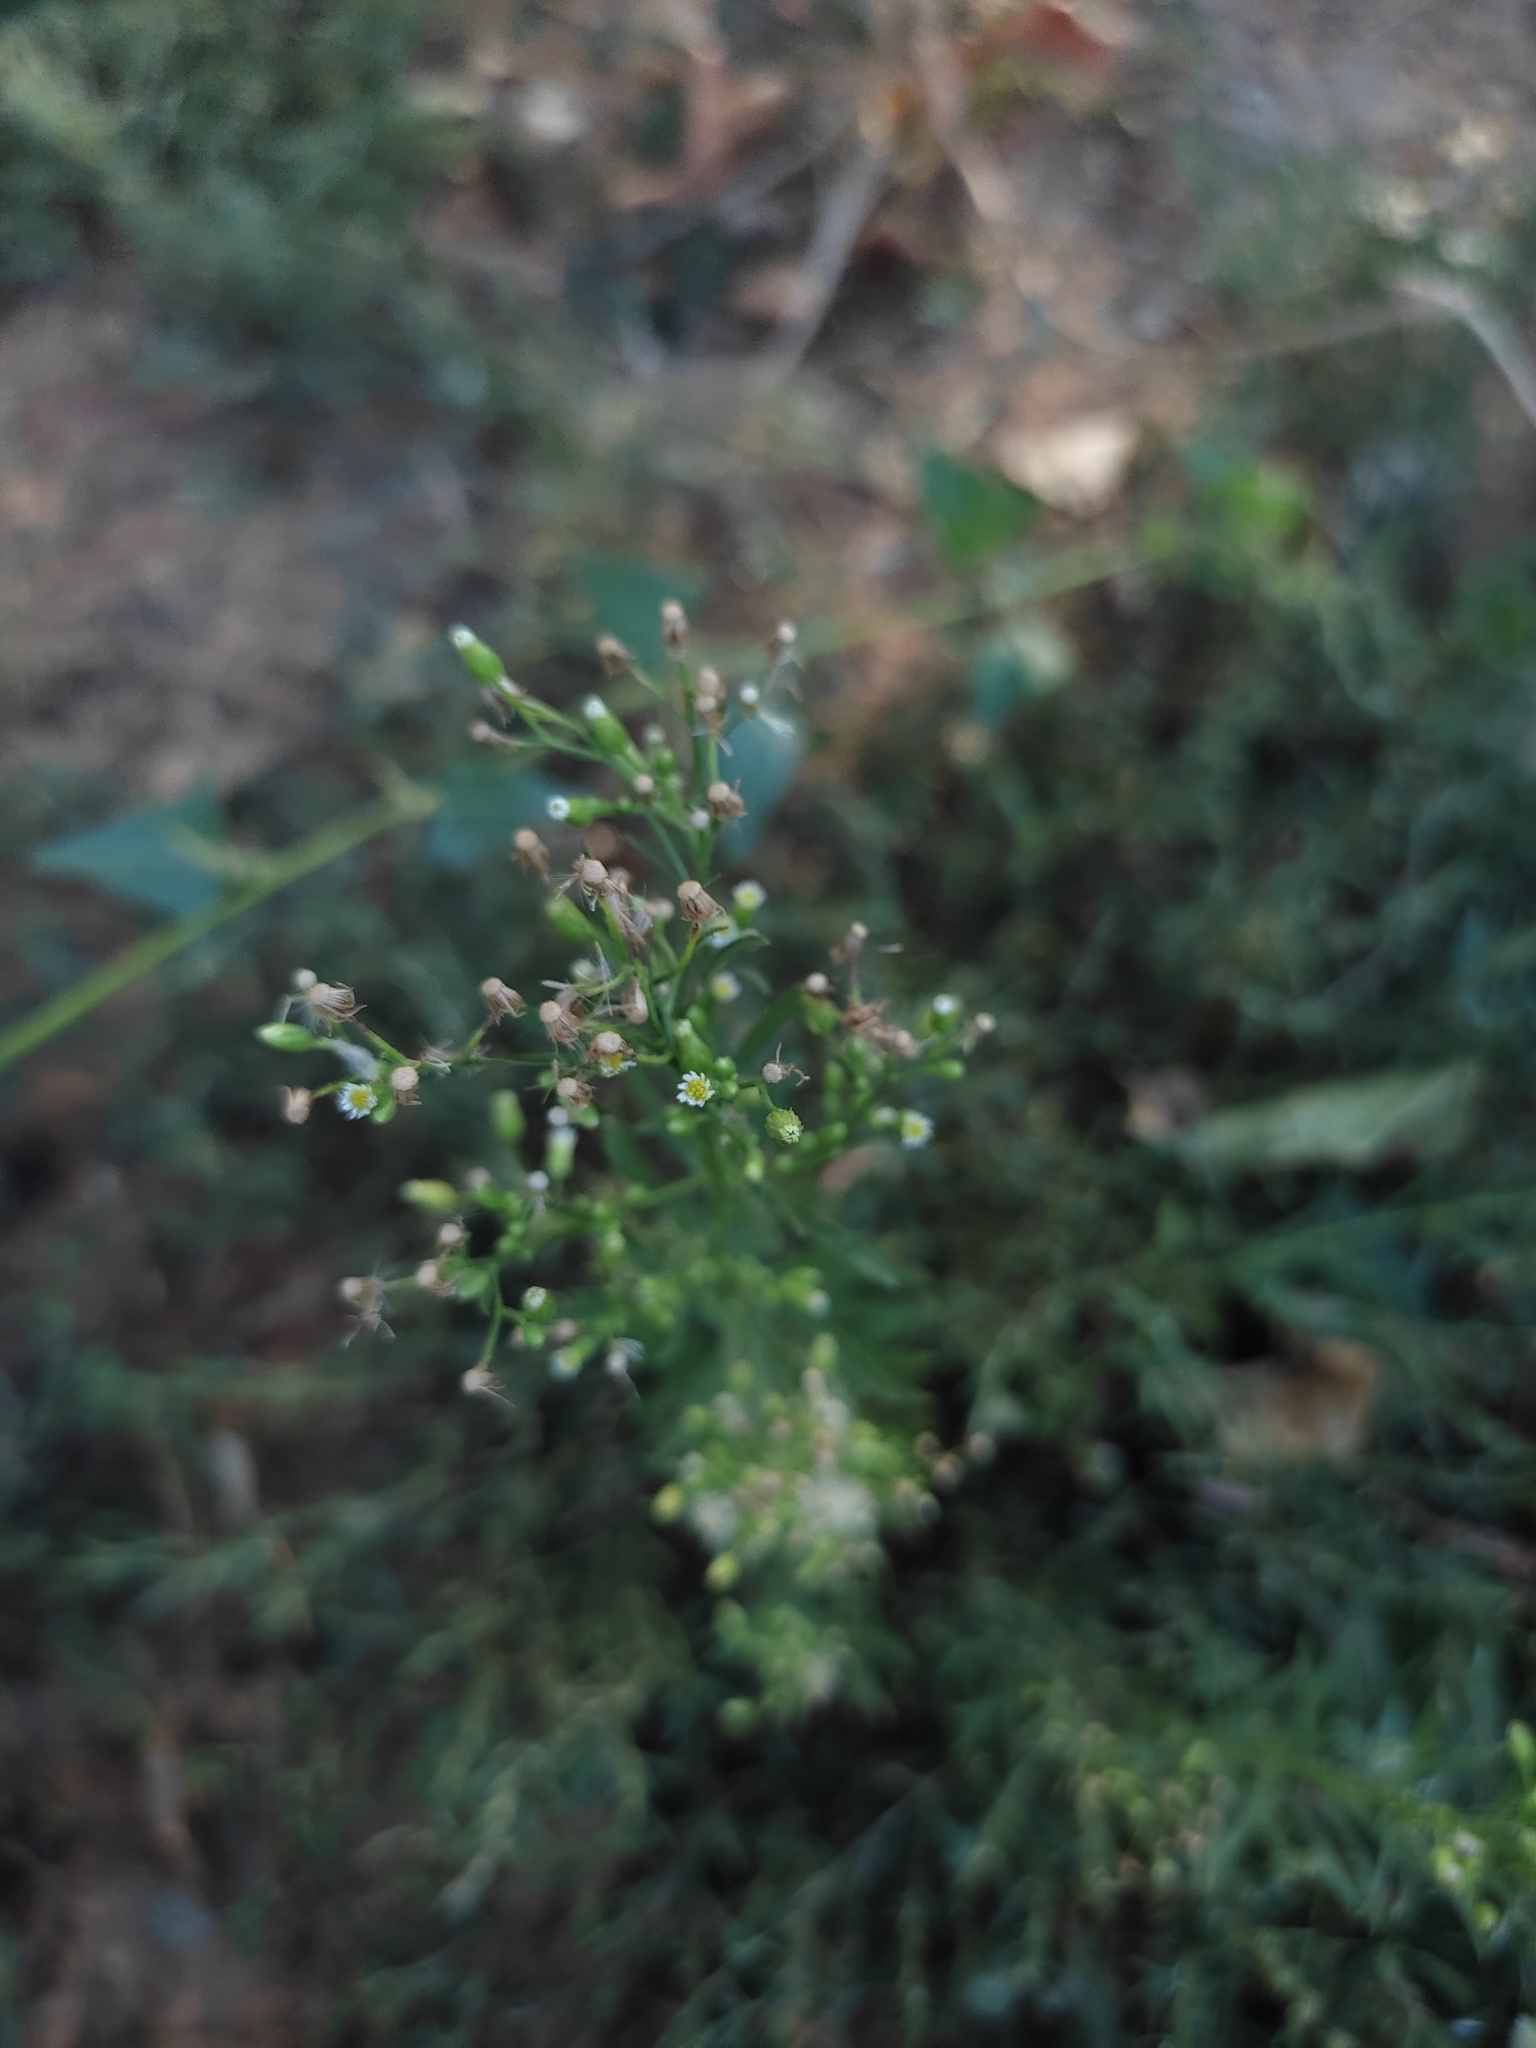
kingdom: Plantae
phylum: Tracheophyta
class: Magnoliopsida
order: Asterales
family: Asteraceae
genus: Erigeron
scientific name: Erigeron canadensis
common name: Canadian fleabane
